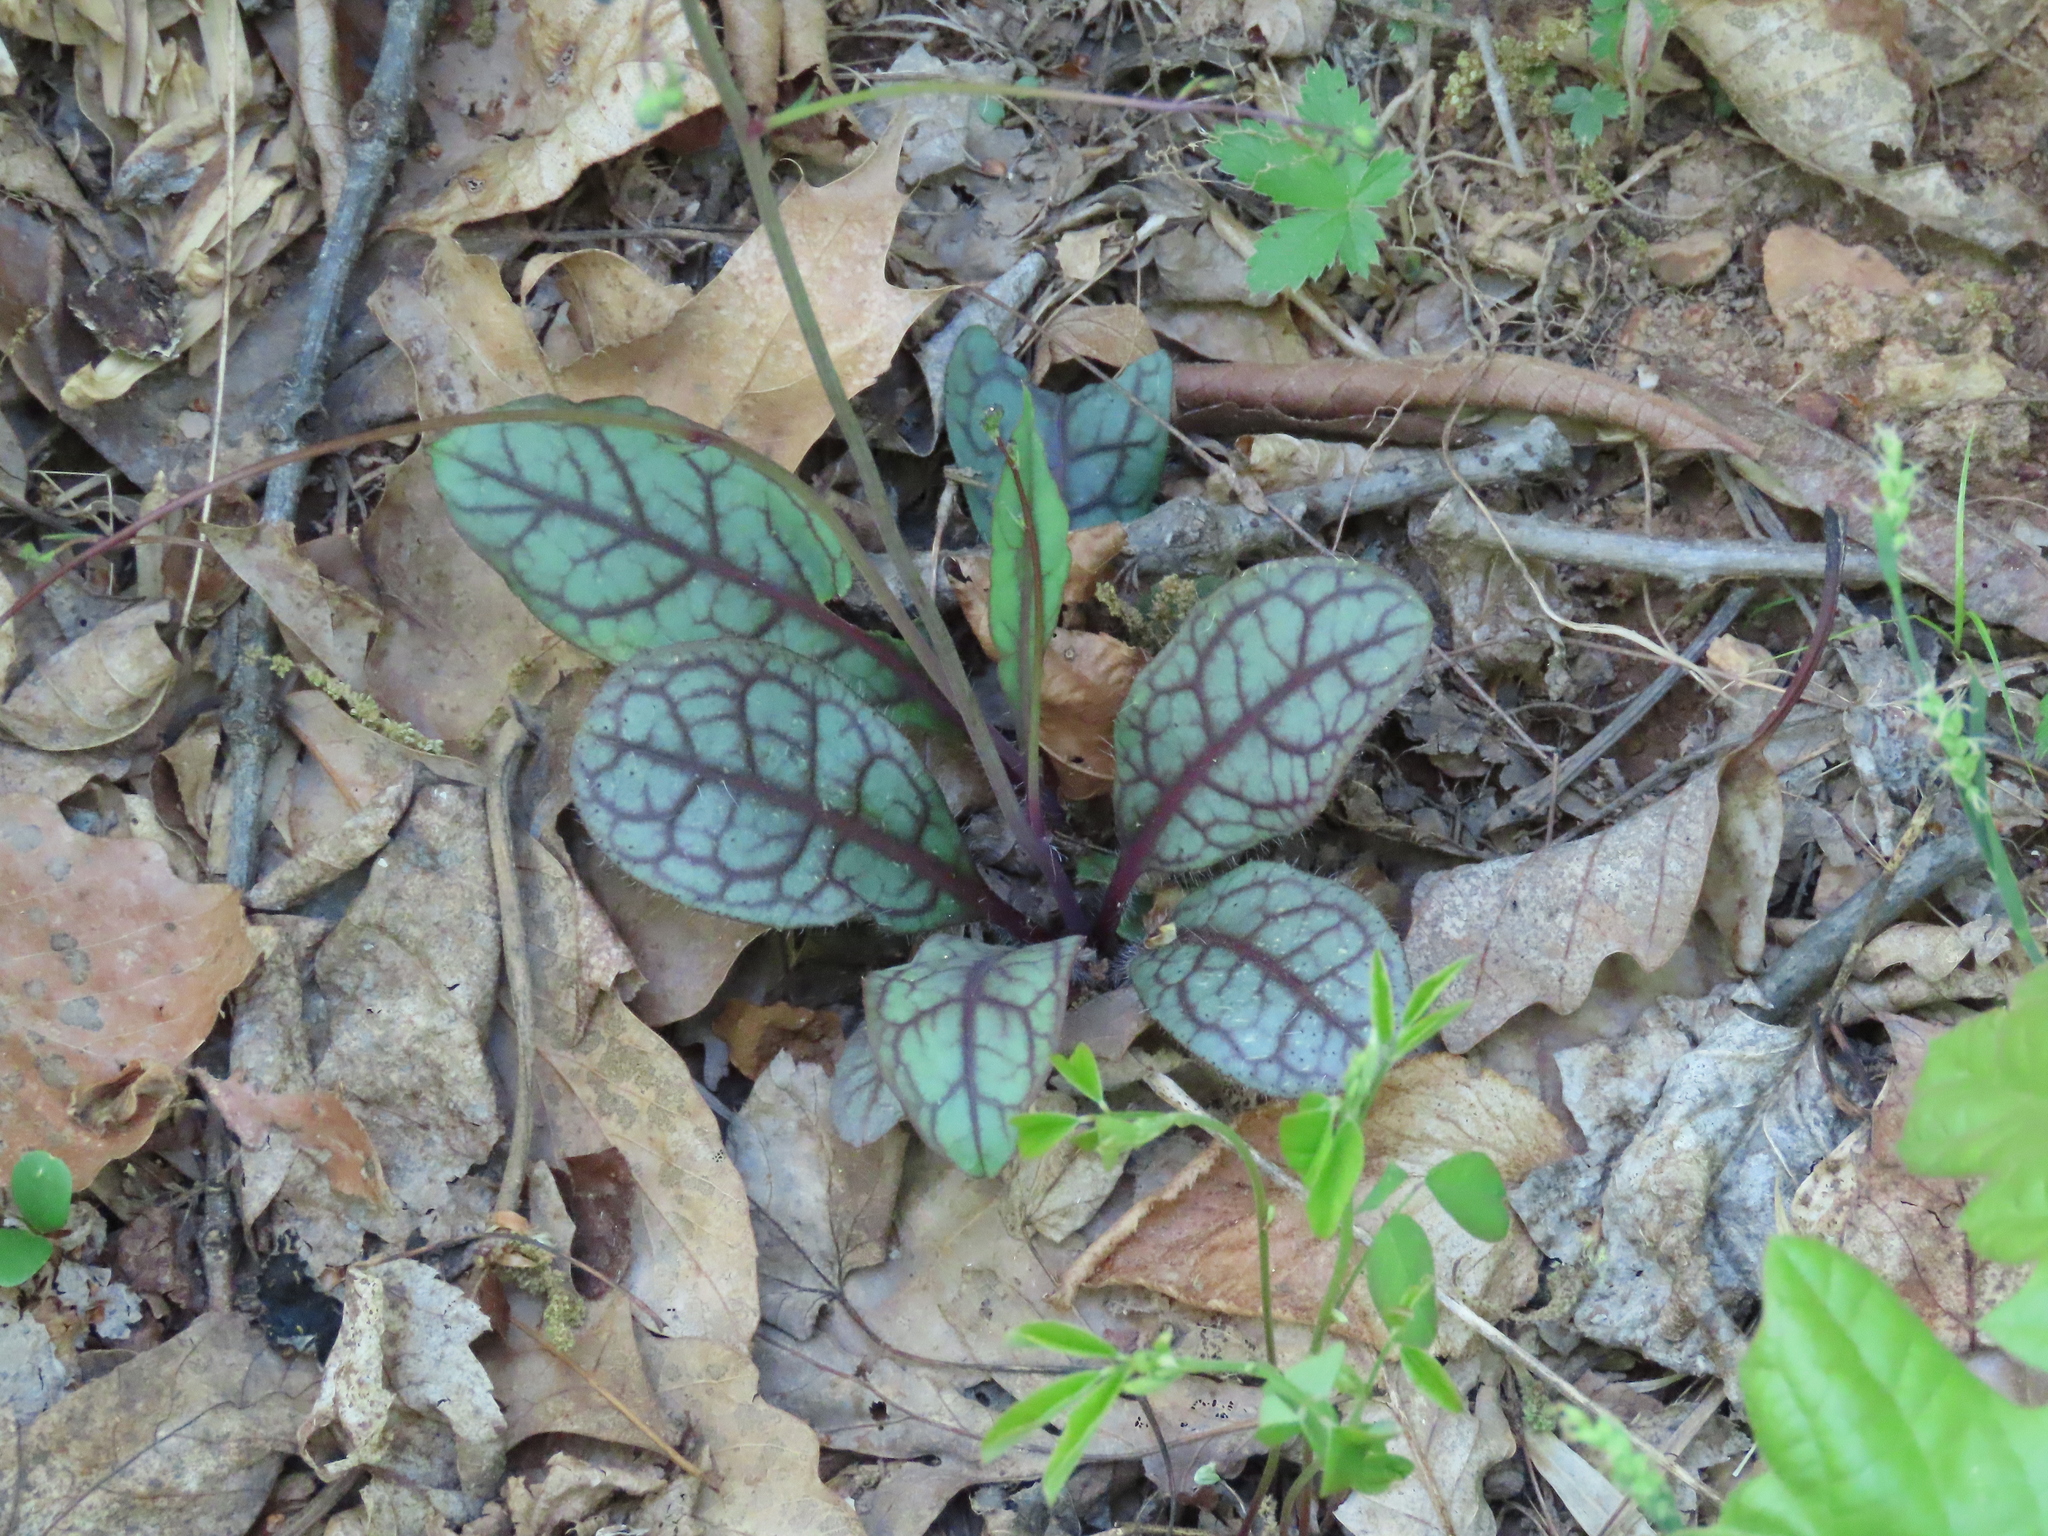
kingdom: Plantae
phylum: Tracheophyta
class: Magnoliopsida
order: Asterales
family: Asteraceae
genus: Hieracium
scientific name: Hieracium venosum
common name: Rattlesnake hawkweed
